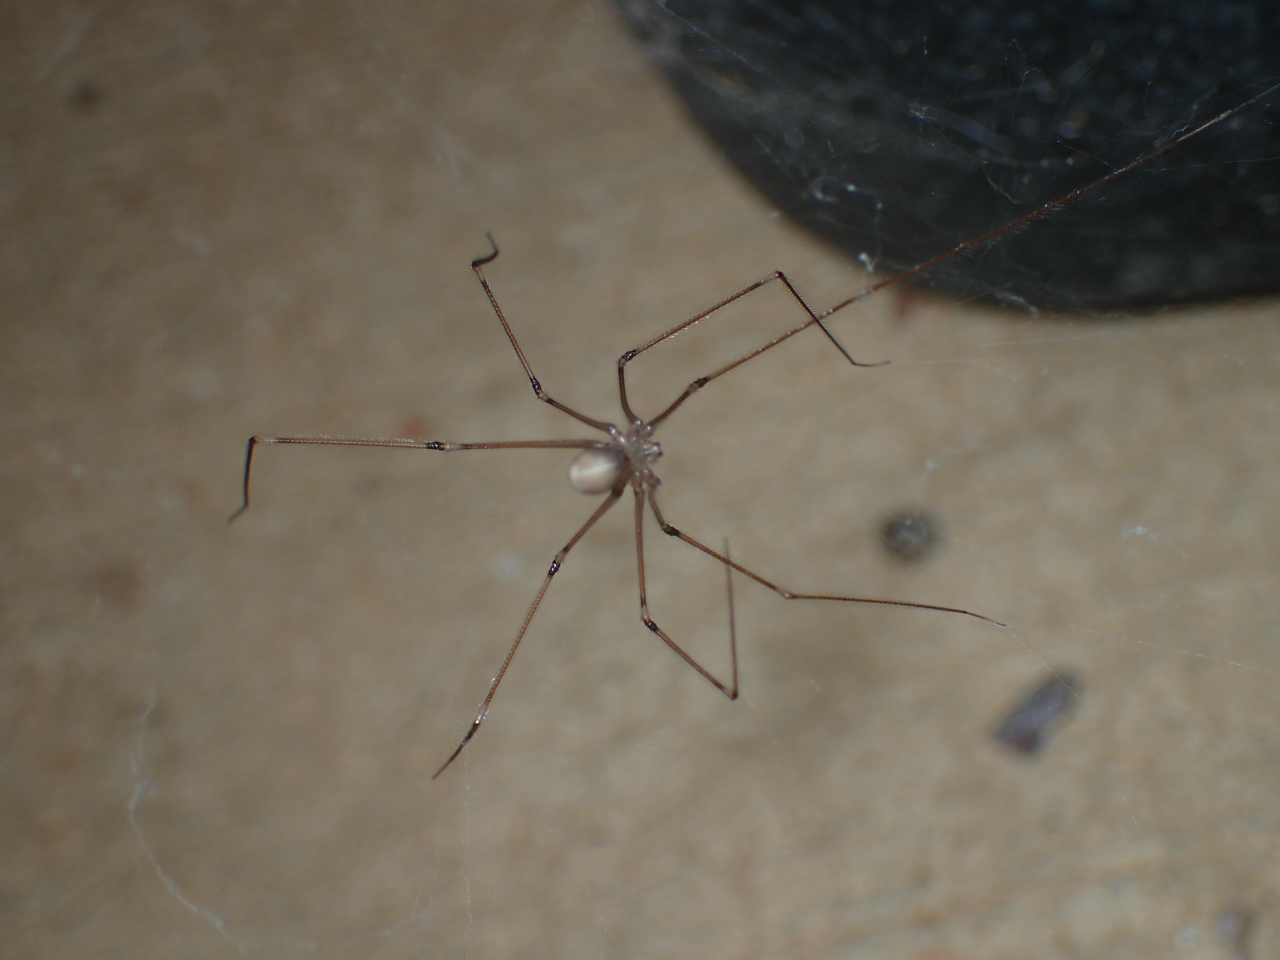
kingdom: Animalia
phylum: Arthropoda
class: Arachnida
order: Araneae
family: Pholcidae
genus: Pholcus
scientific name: Pholcus phalangioides
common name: Longbodied cellar spider
